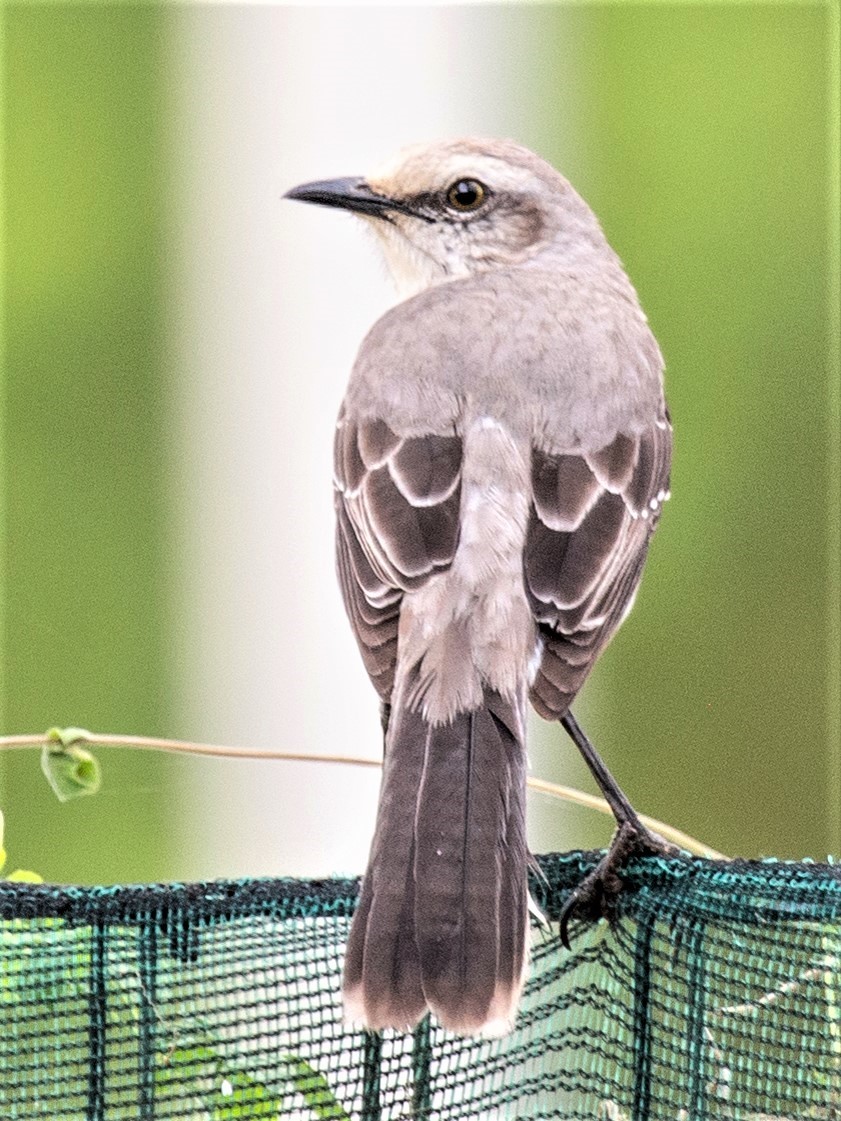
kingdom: Animalia
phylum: Chordata
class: Aves
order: Passeriformes
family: Mimidae
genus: Mimus
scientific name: Mimus gilvus
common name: Tropical mockingbird
